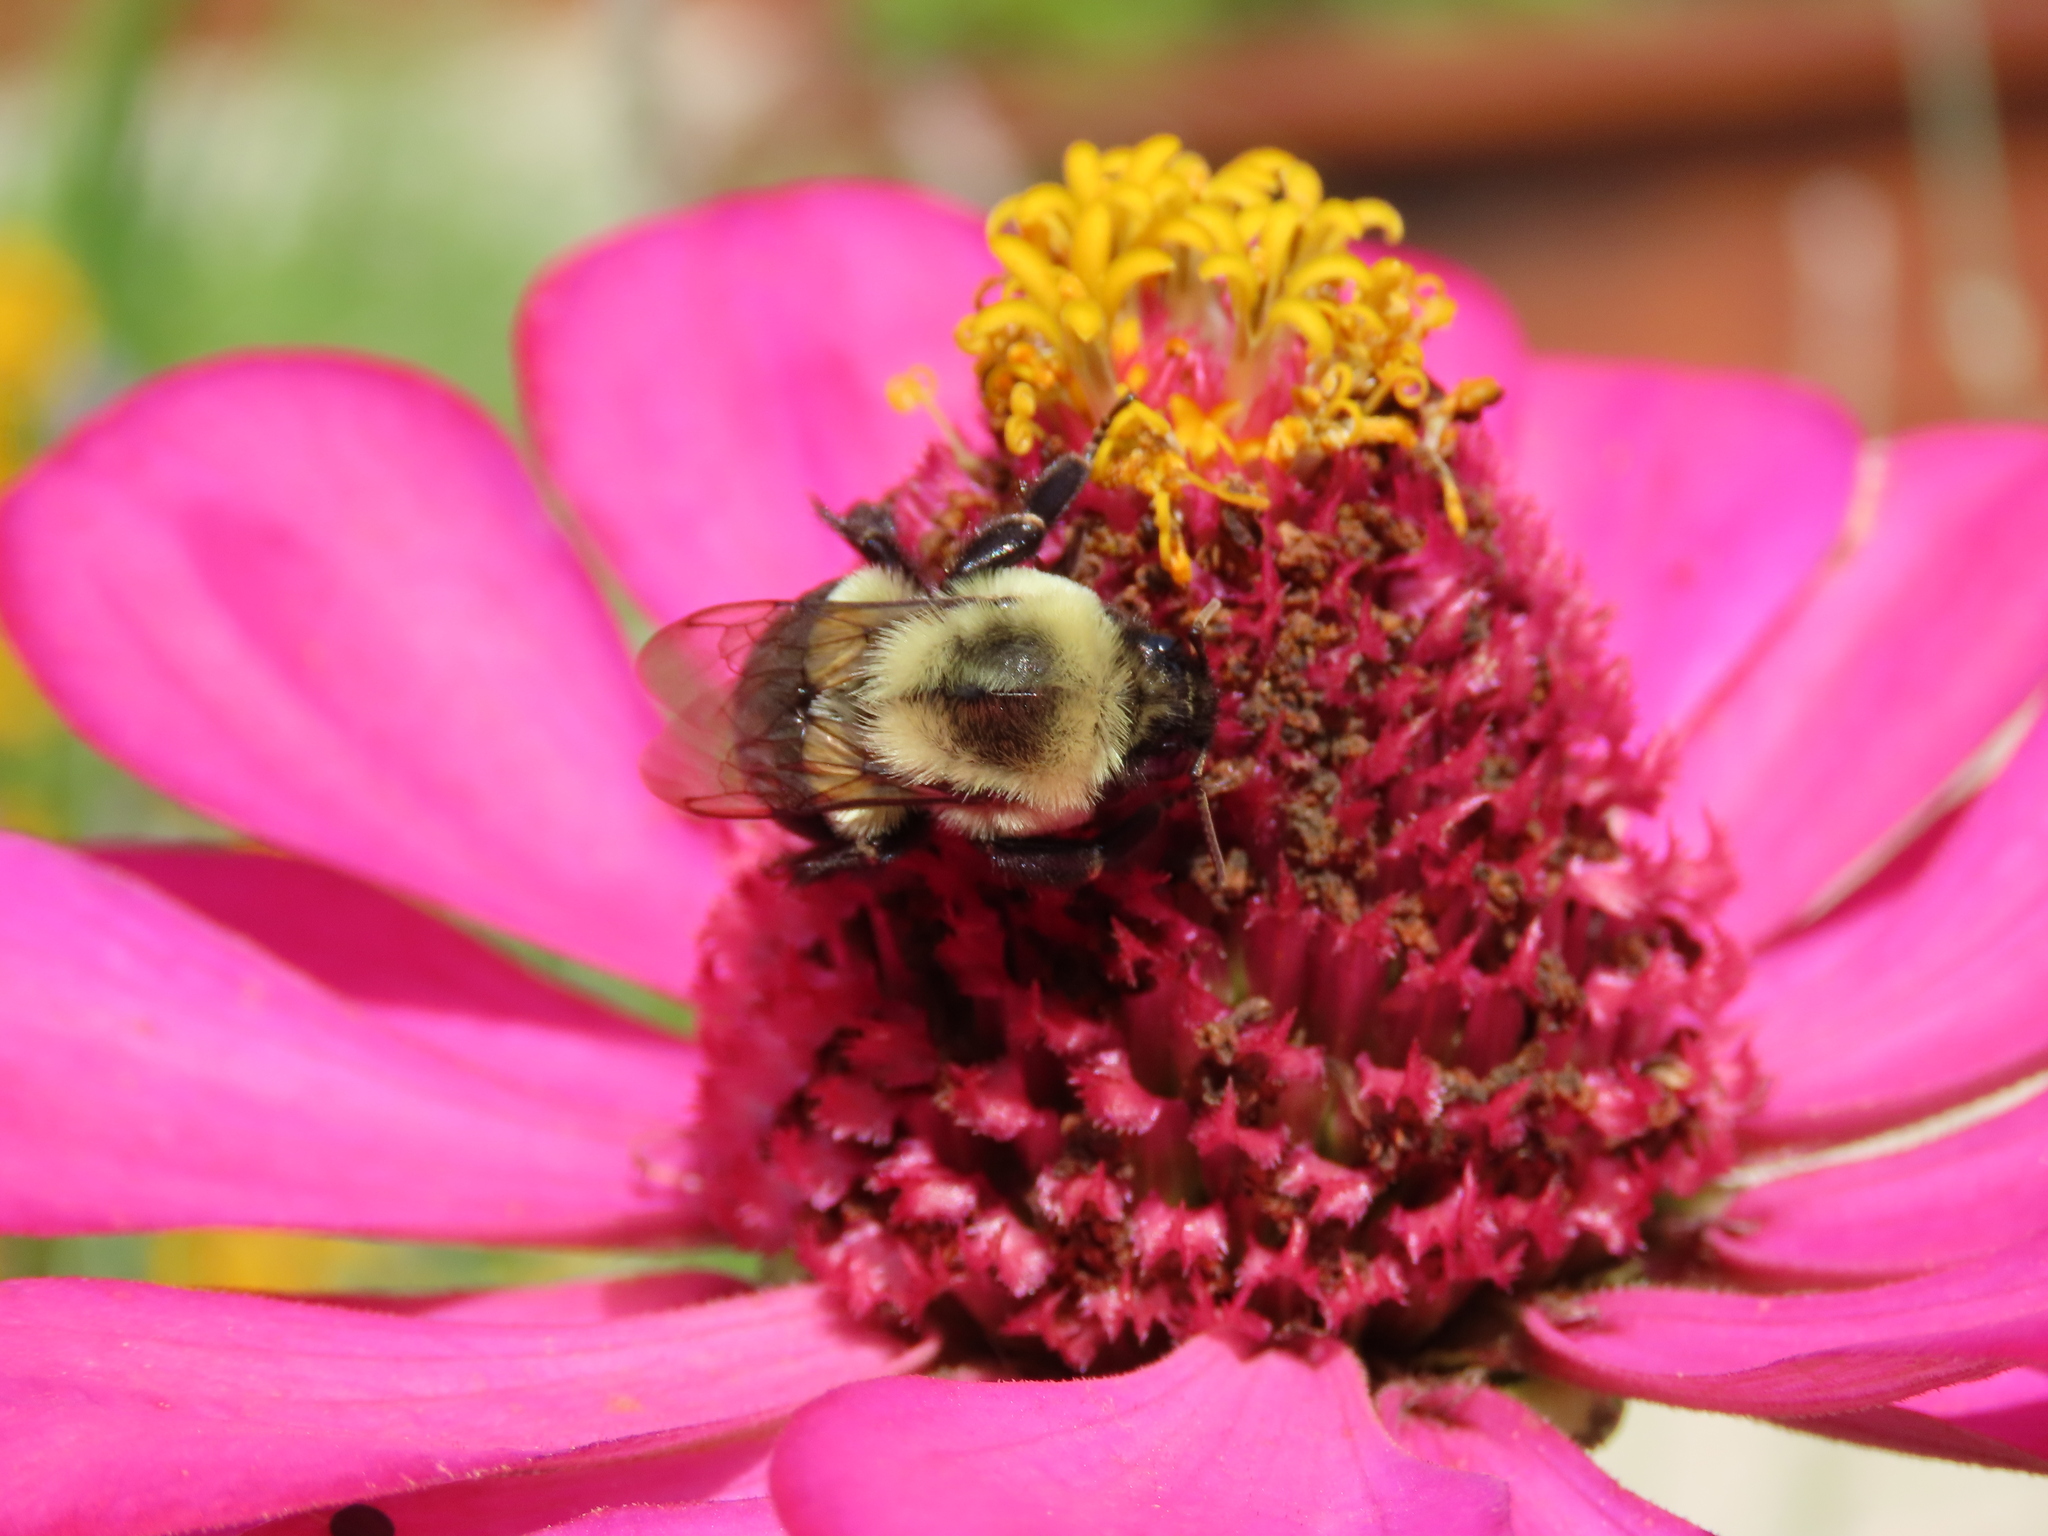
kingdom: Animalia
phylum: Arthropoda
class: Insecta
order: Hymenoptera
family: Apidae
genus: Bombus
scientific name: Bombus impatiens
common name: Common eastern bumble bee
